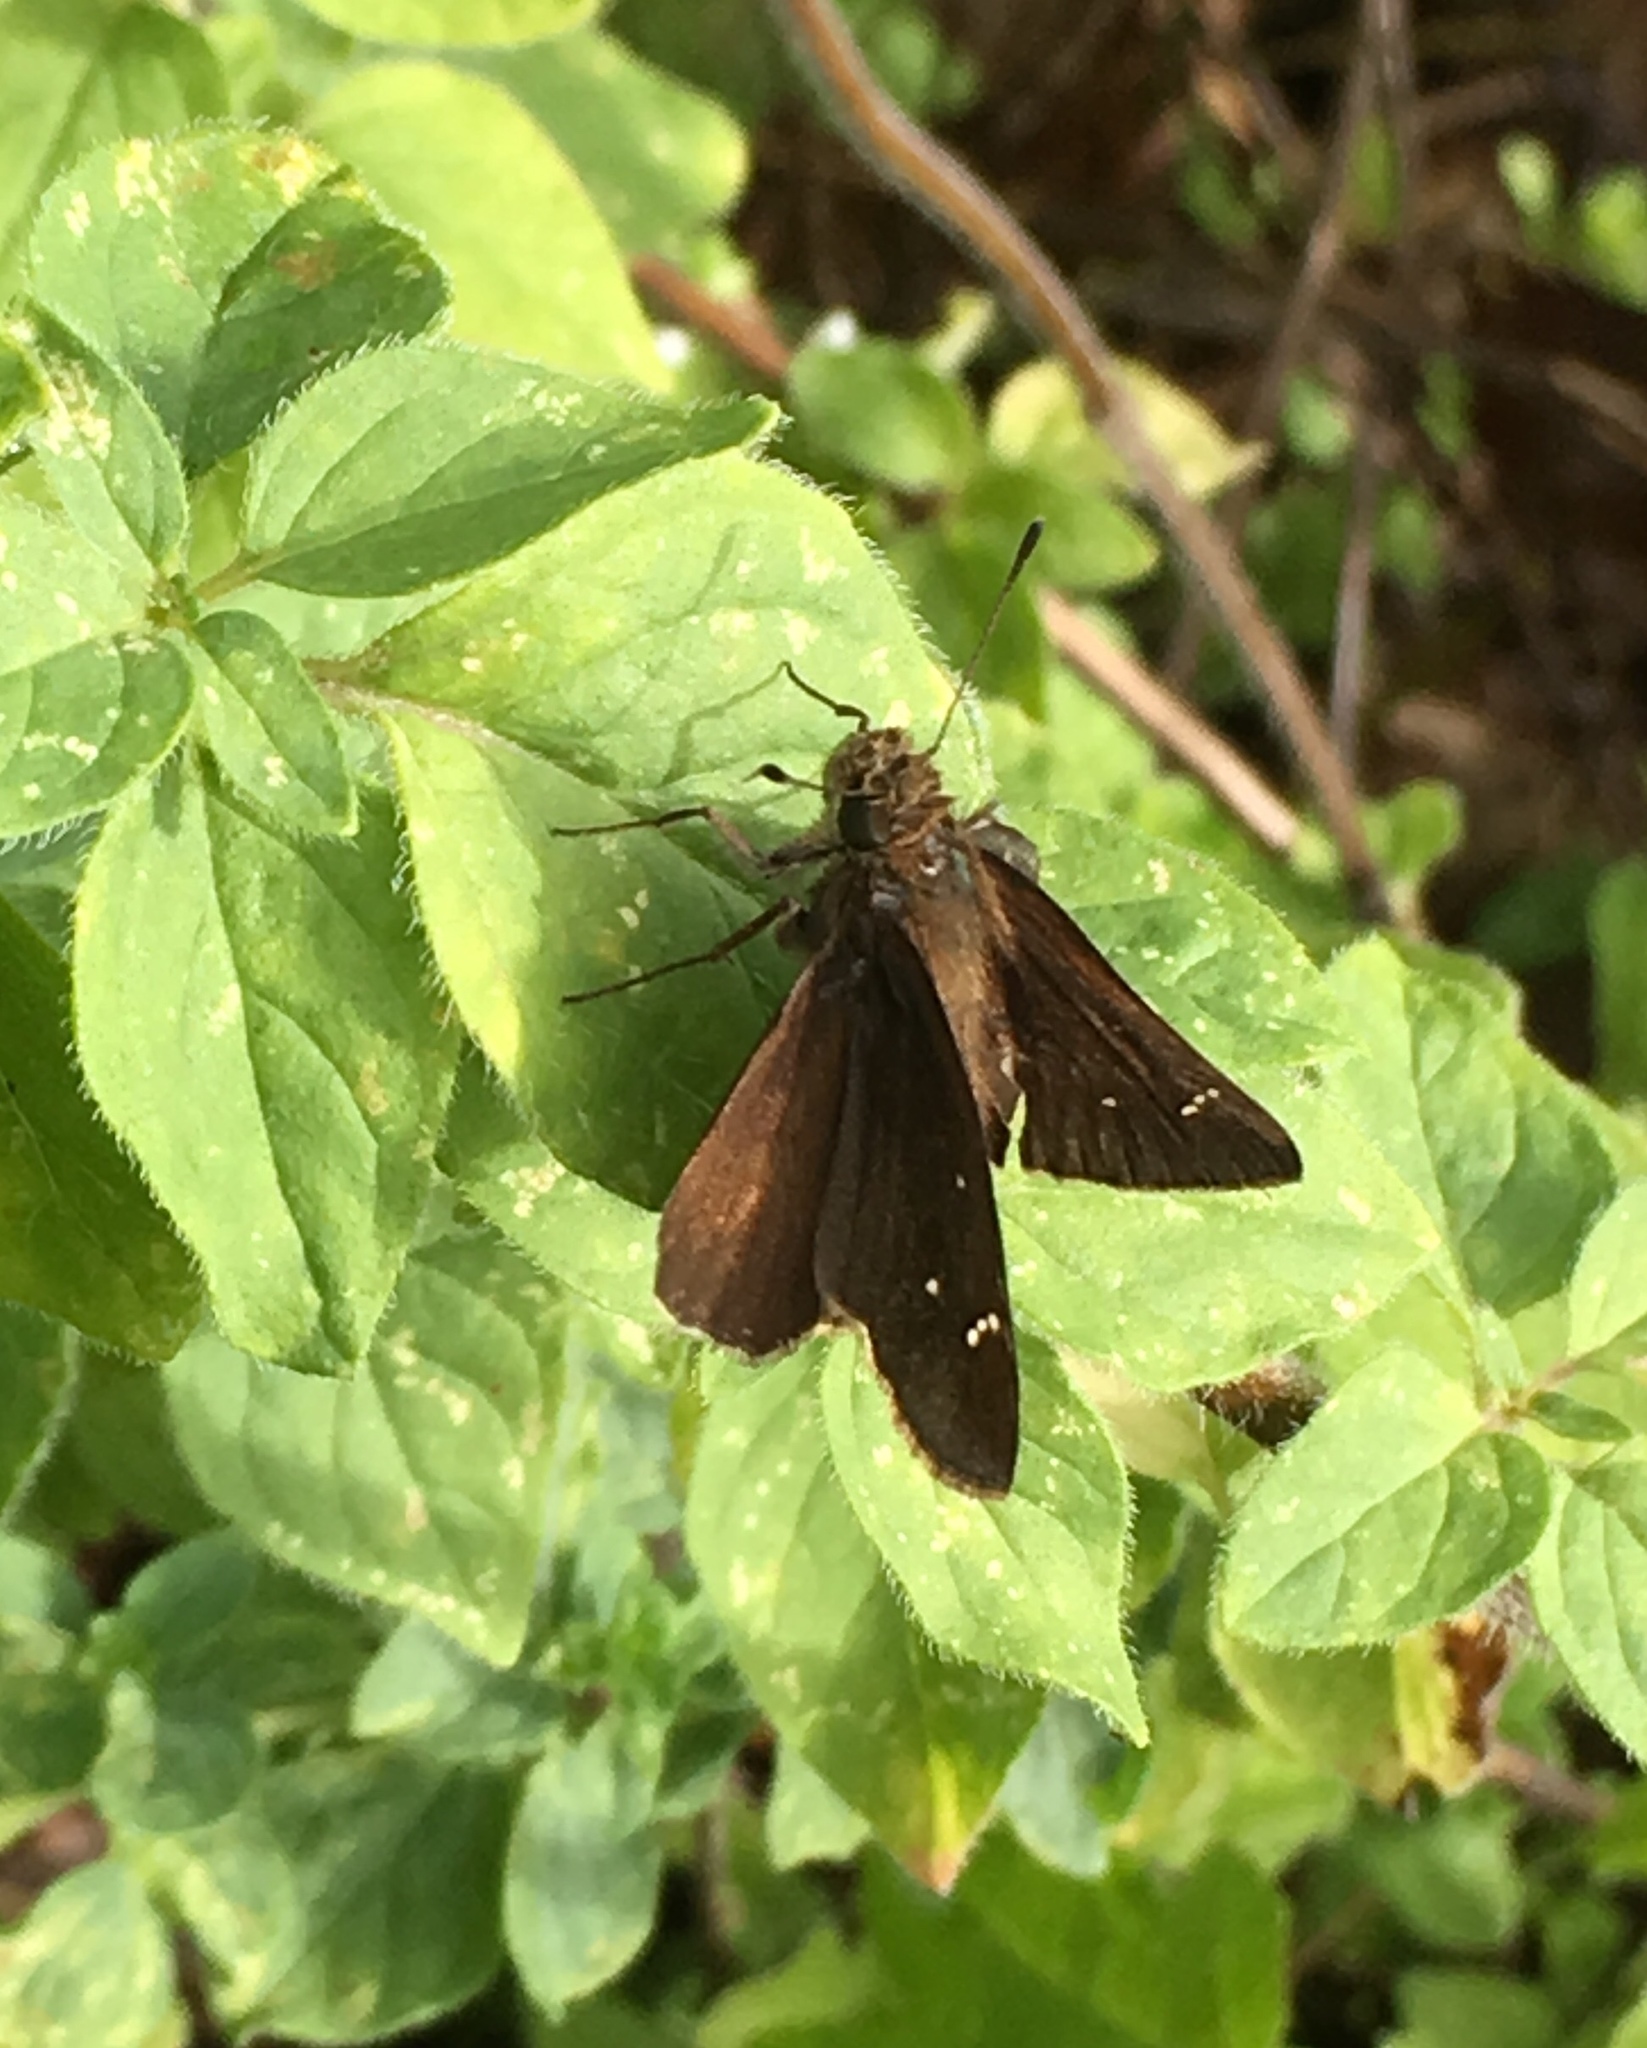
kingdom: Animalia
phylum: Arthropoda
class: Insecta
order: Lepidoptera
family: Hesperiidae
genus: Lerema
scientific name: Lerema accius
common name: Clouded skipper
